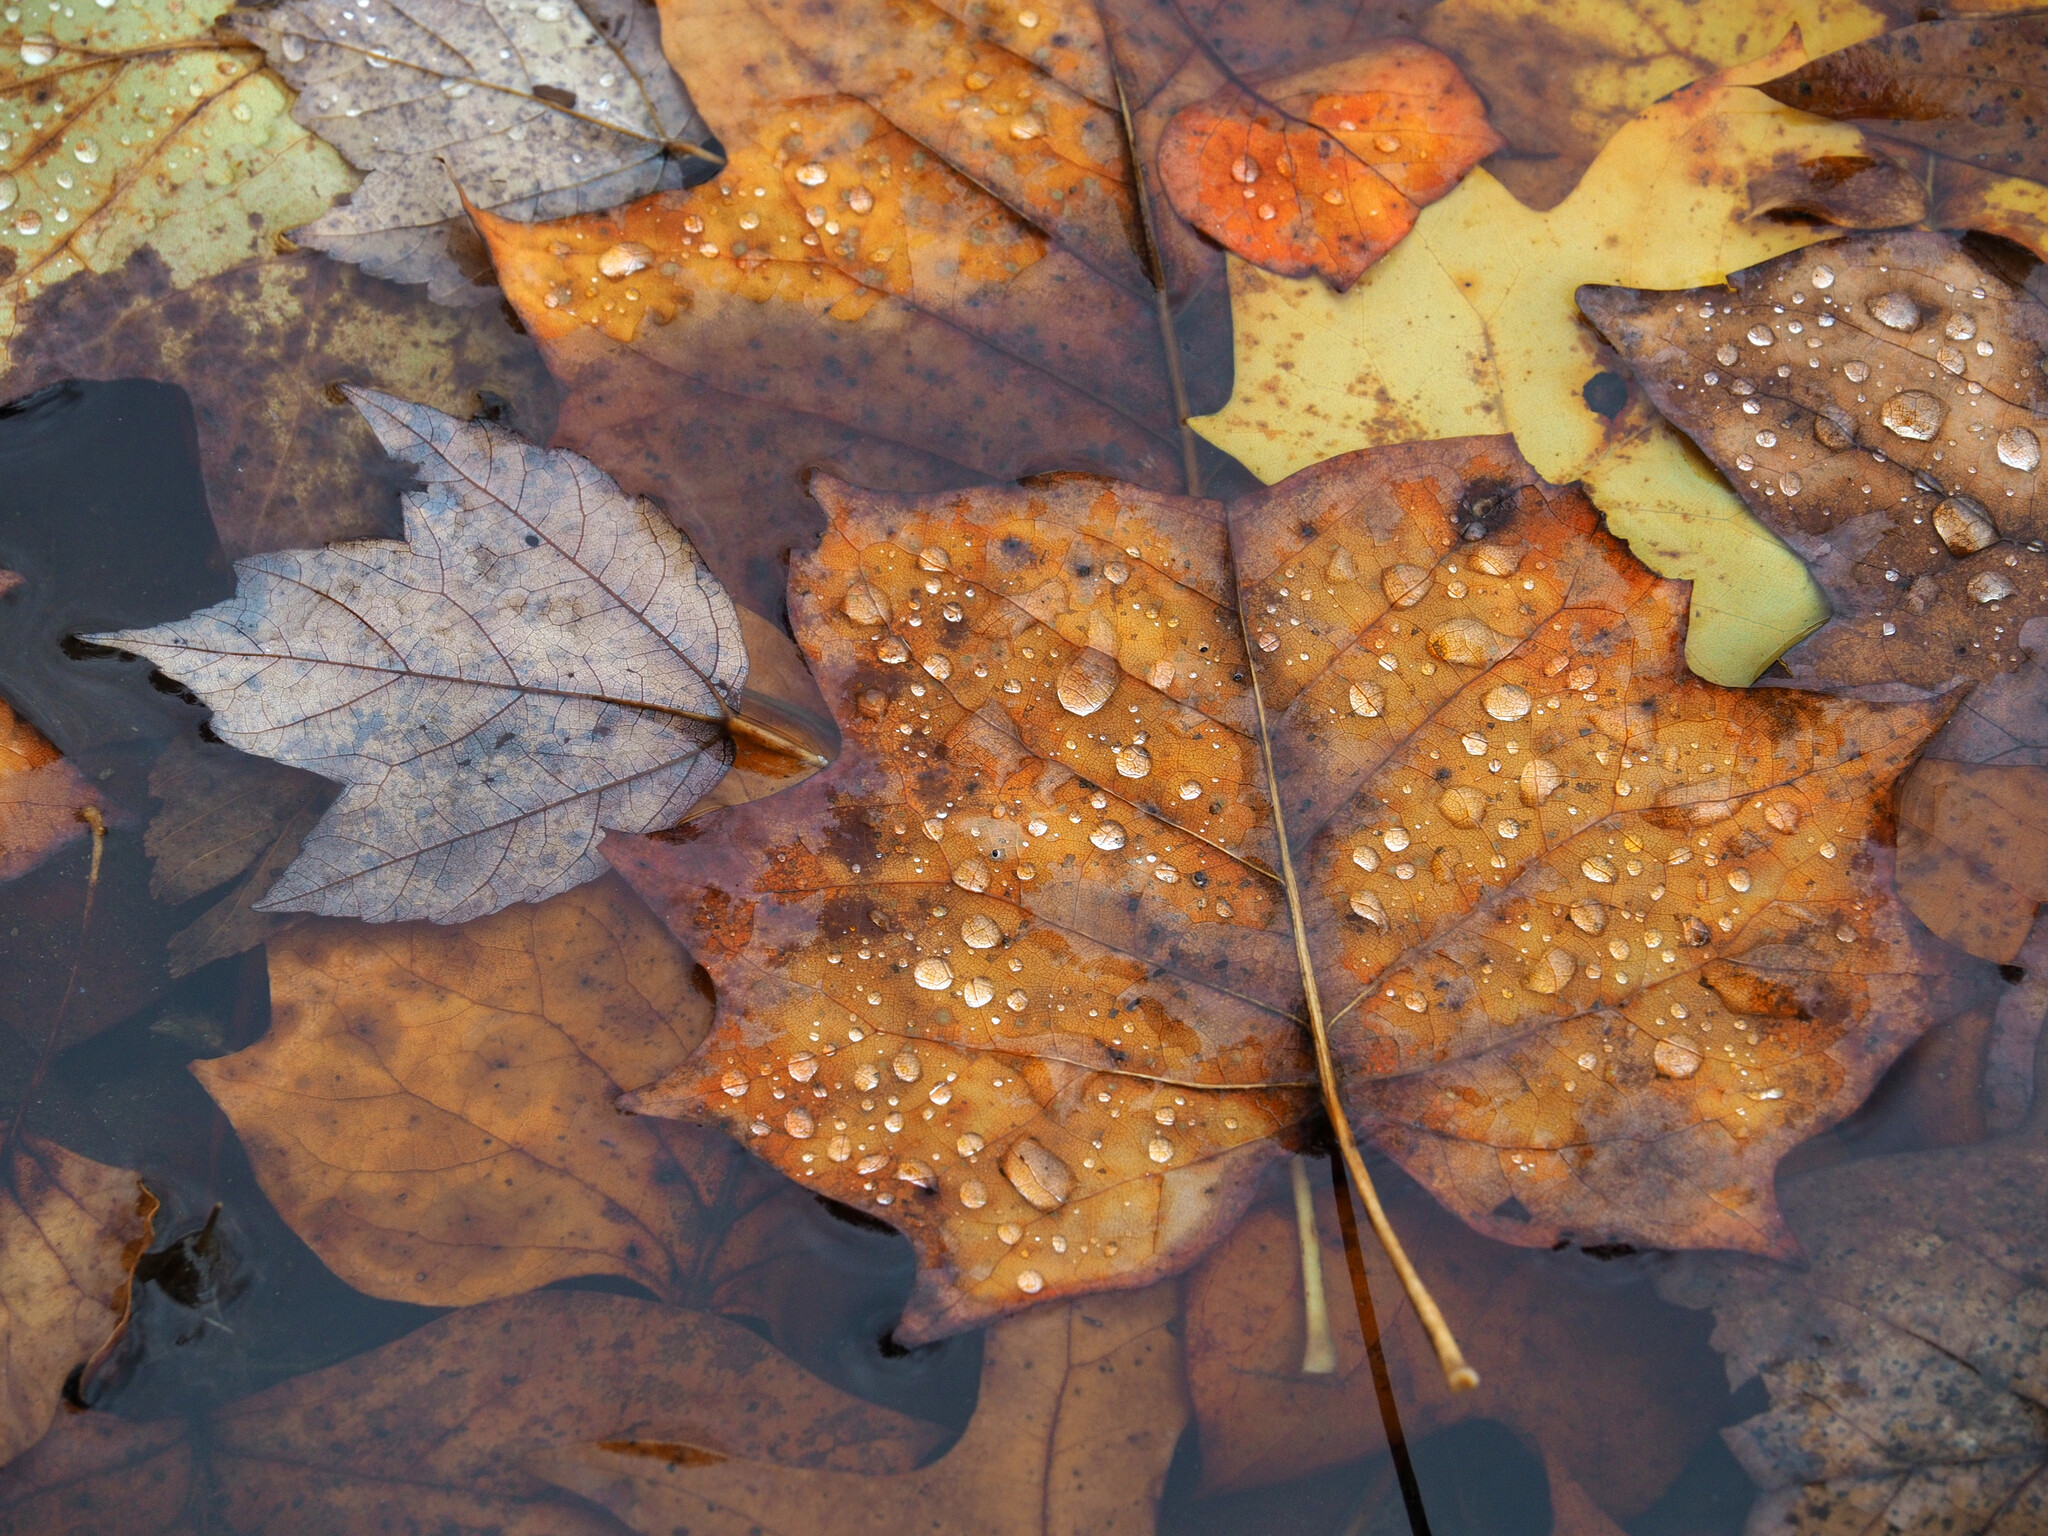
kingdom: Plantae
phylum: Tracheophyta
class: Magnoliopsida
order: Magnoliales
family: Magnoliaceae
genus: Liriodendron
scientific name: Liriodendron tulipifera
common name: Tulip tree
